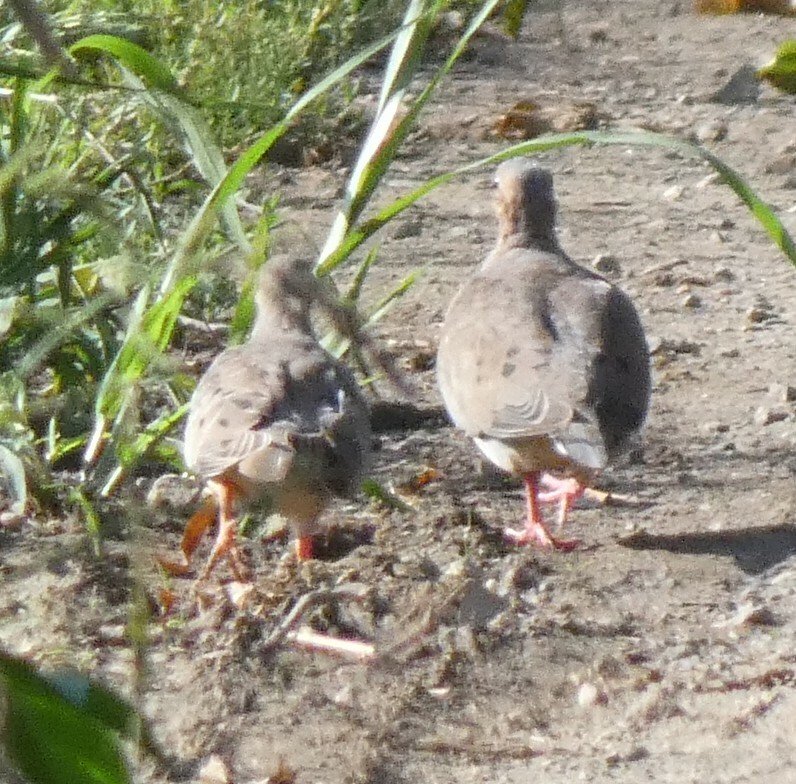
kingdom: Animalia
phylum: Chordata
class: Aves
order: Columbiformes
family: Columbidae
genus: Zenaida
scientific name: Zenaida macroura
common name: Mourning dove
